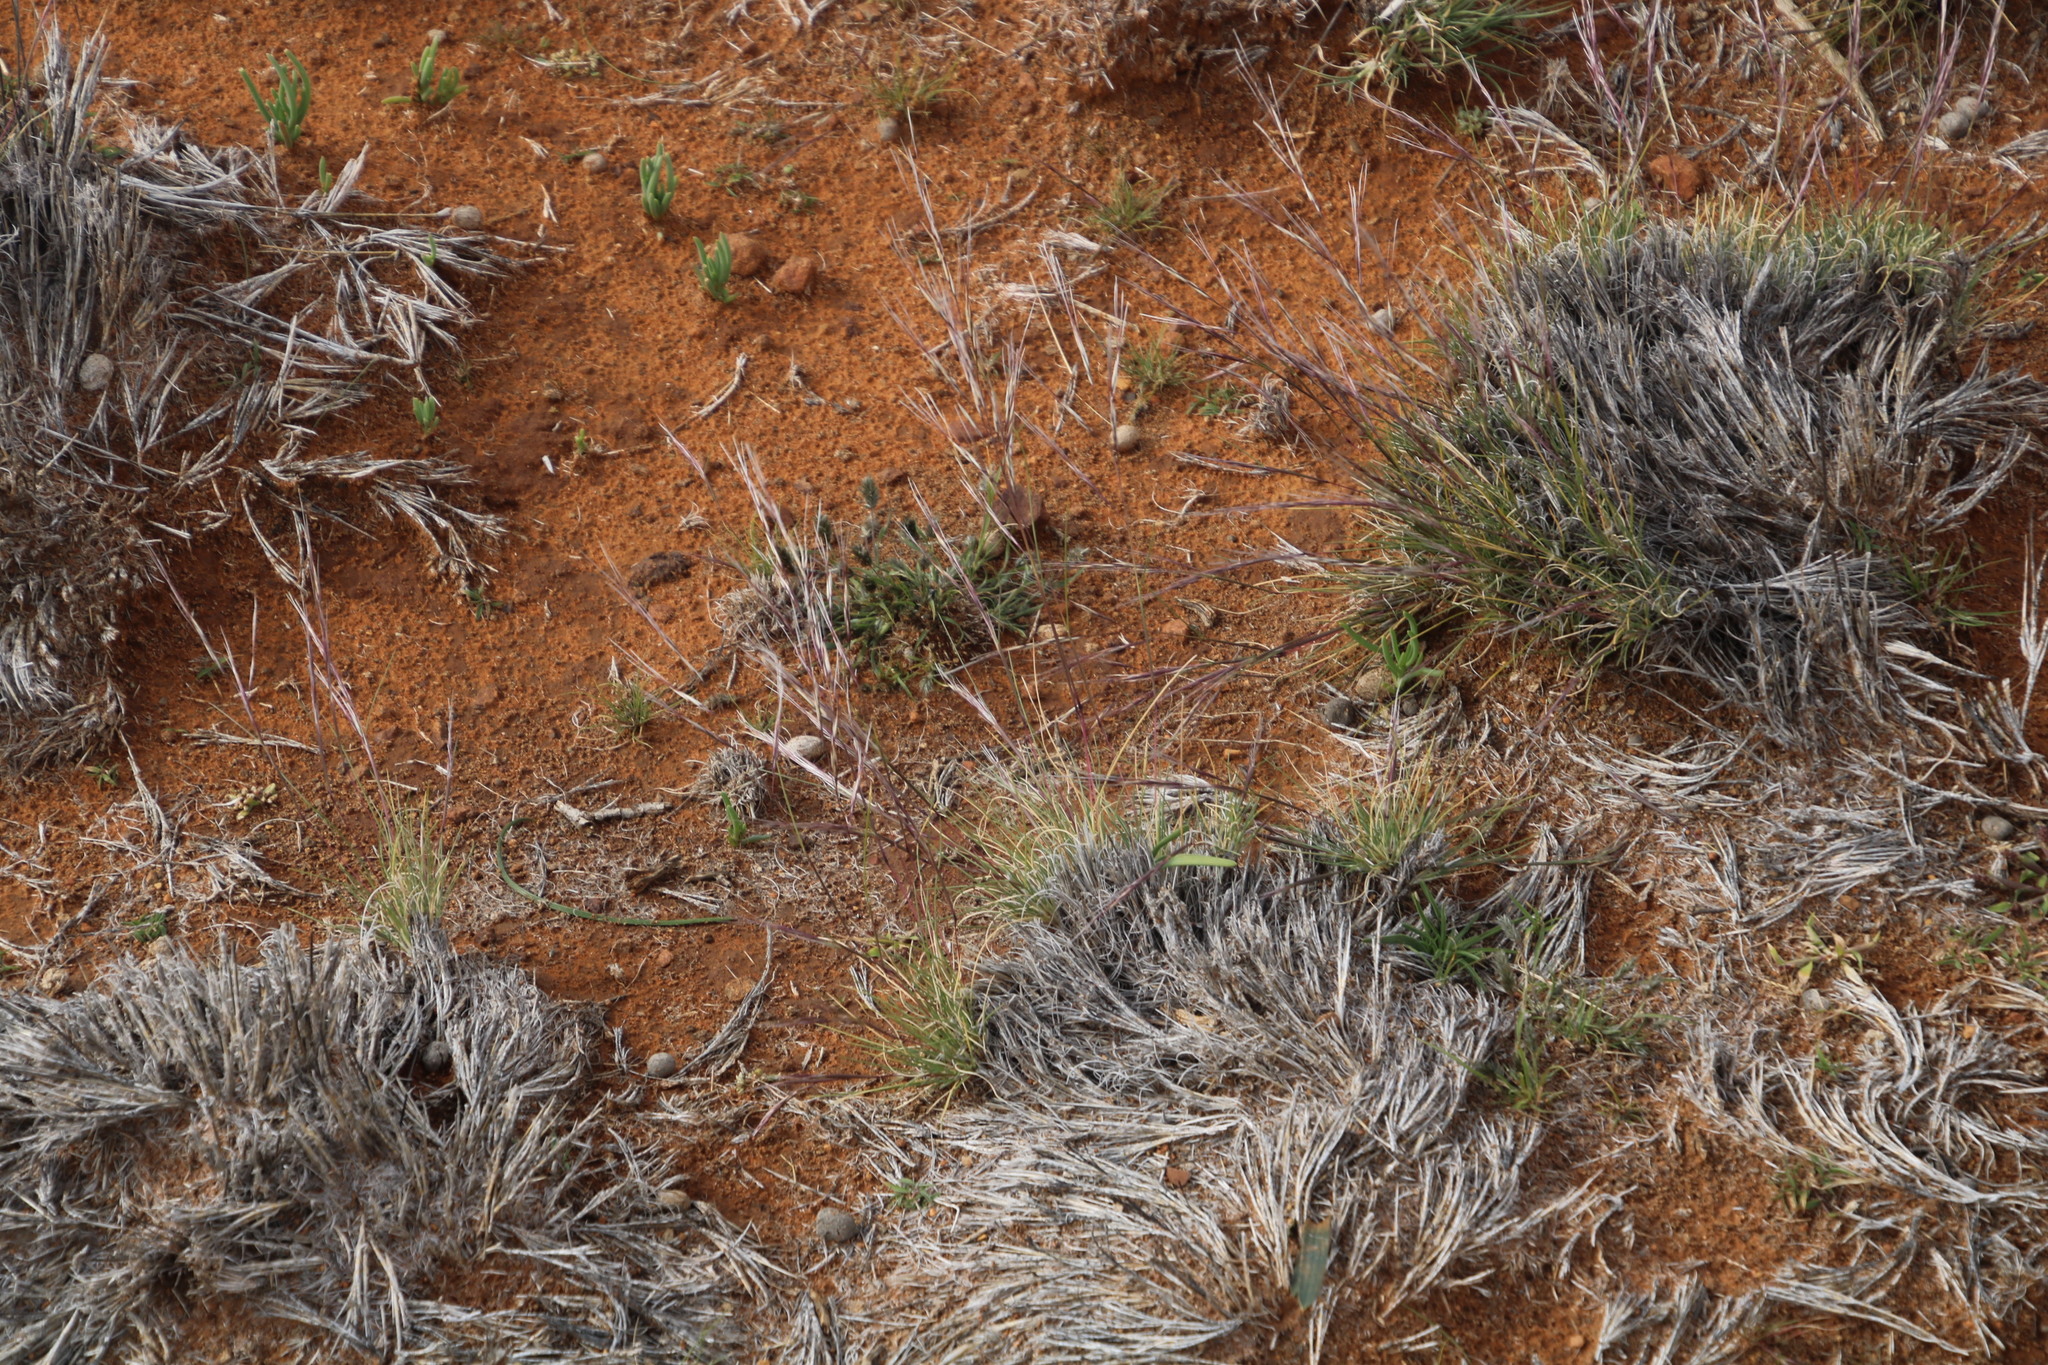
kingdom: Plantae
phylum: Tracheophyta
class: Liliopsida
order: Poales
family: Poaceae
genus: Stipagrostis
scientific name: Stipagrostis ciliata
